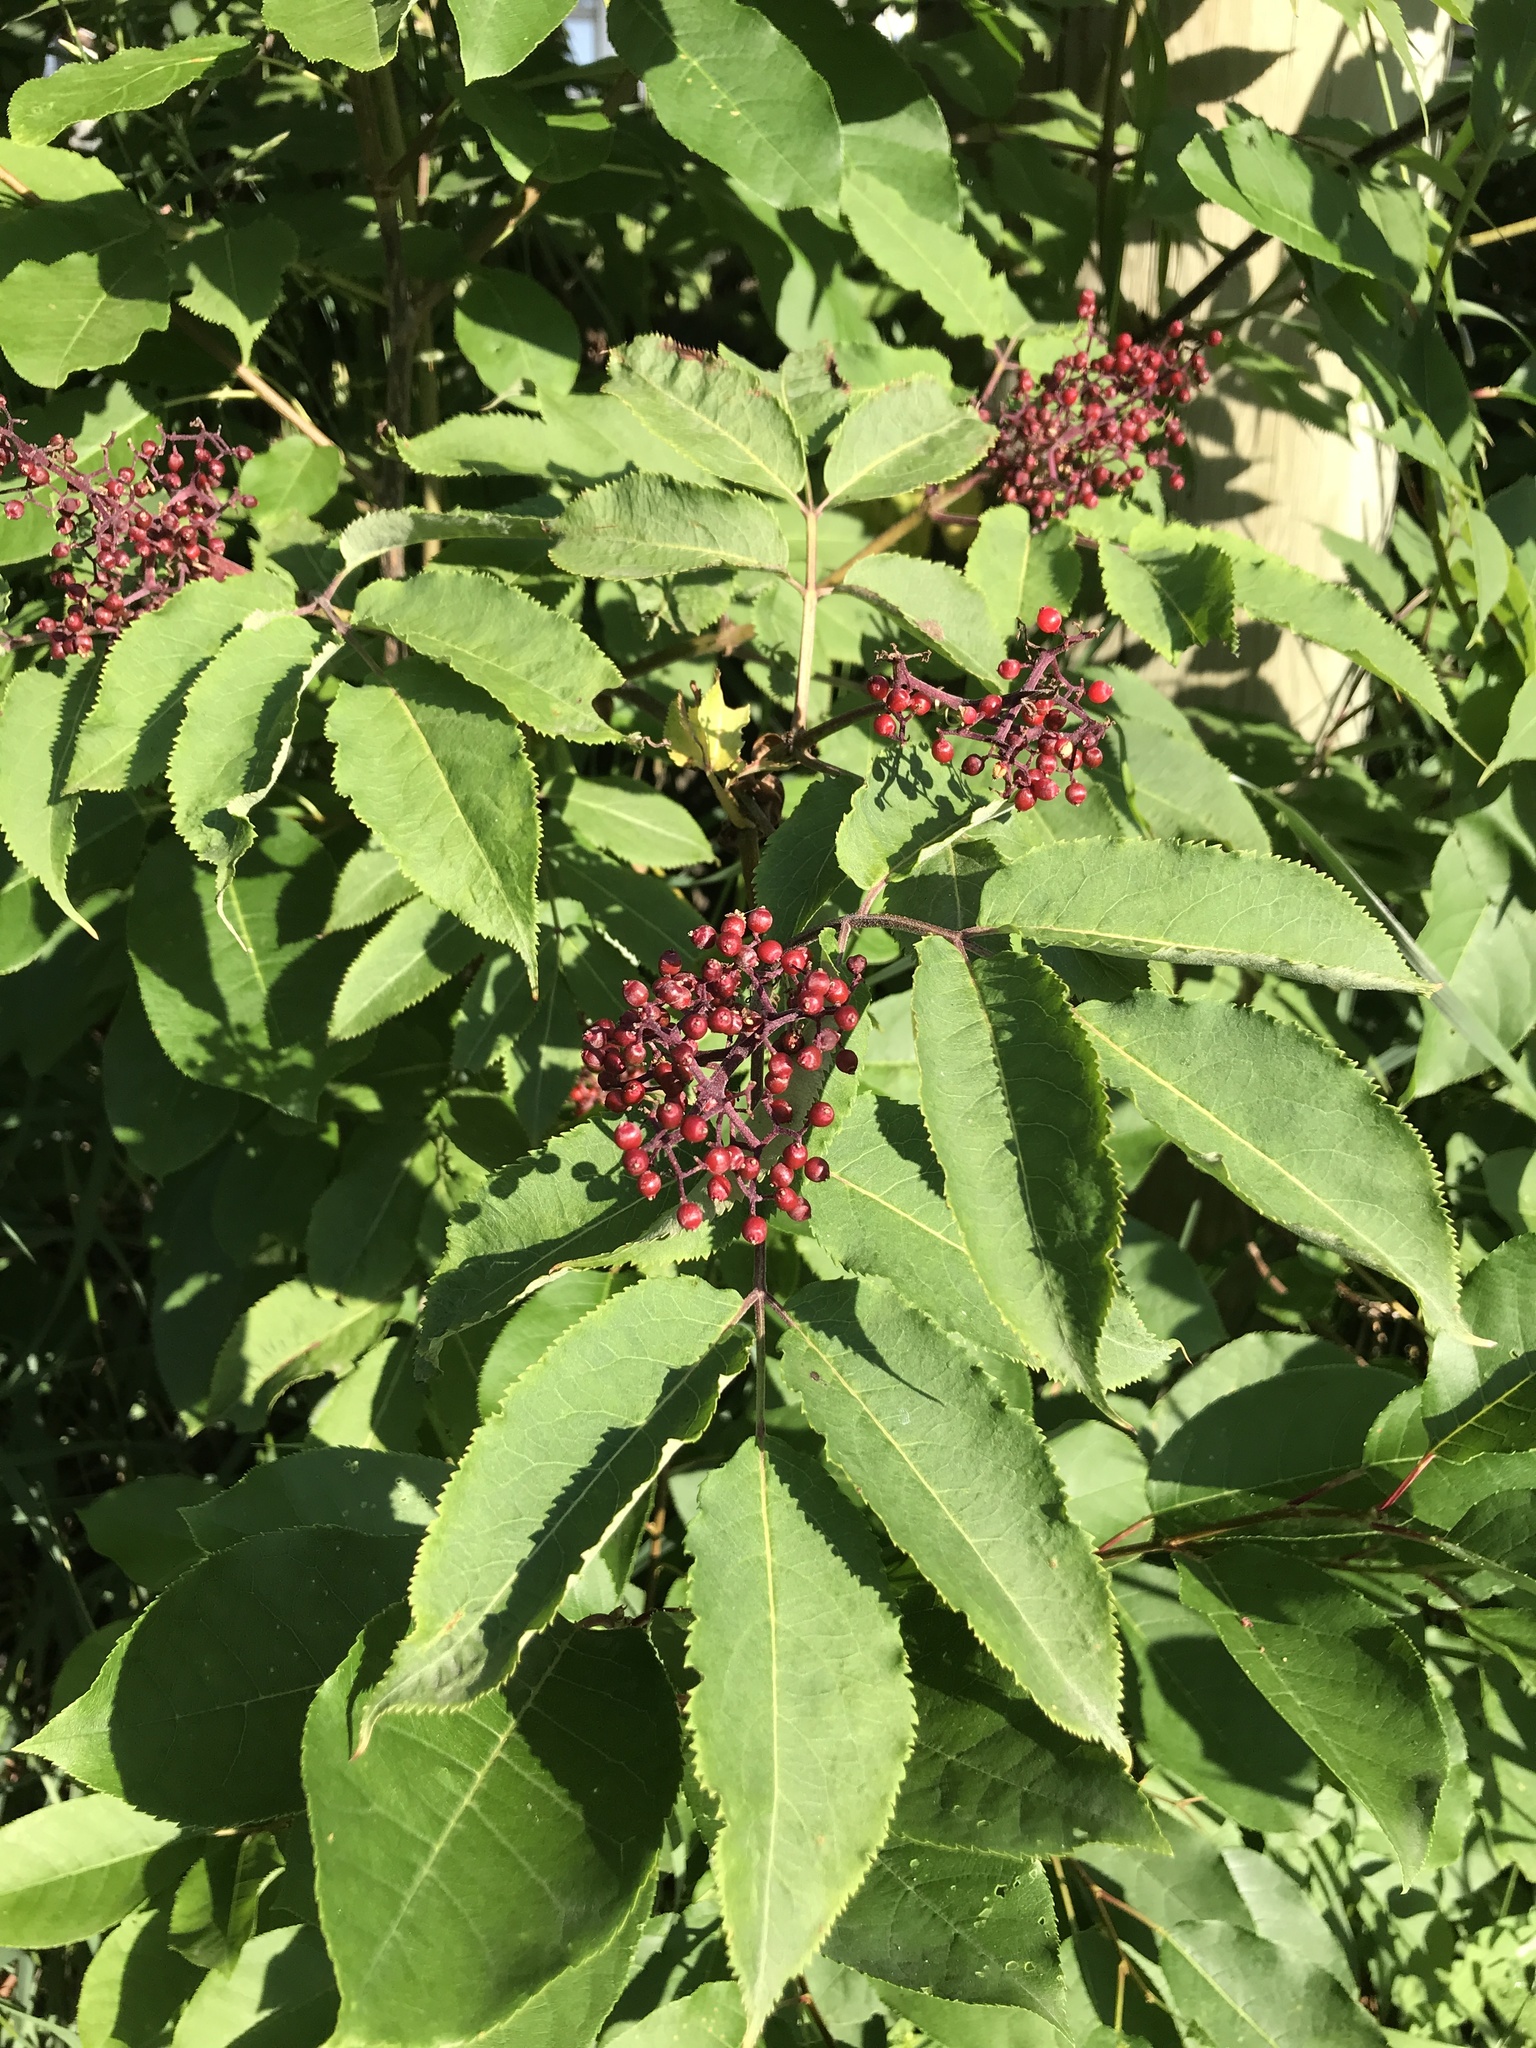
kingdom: Plantae
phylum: Tracheophyta
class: Magnoliopsida
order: Dipsacales
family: Viburnaceae
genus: Sambucus
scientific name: Sambucus racemosa
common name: Red-berried elder
